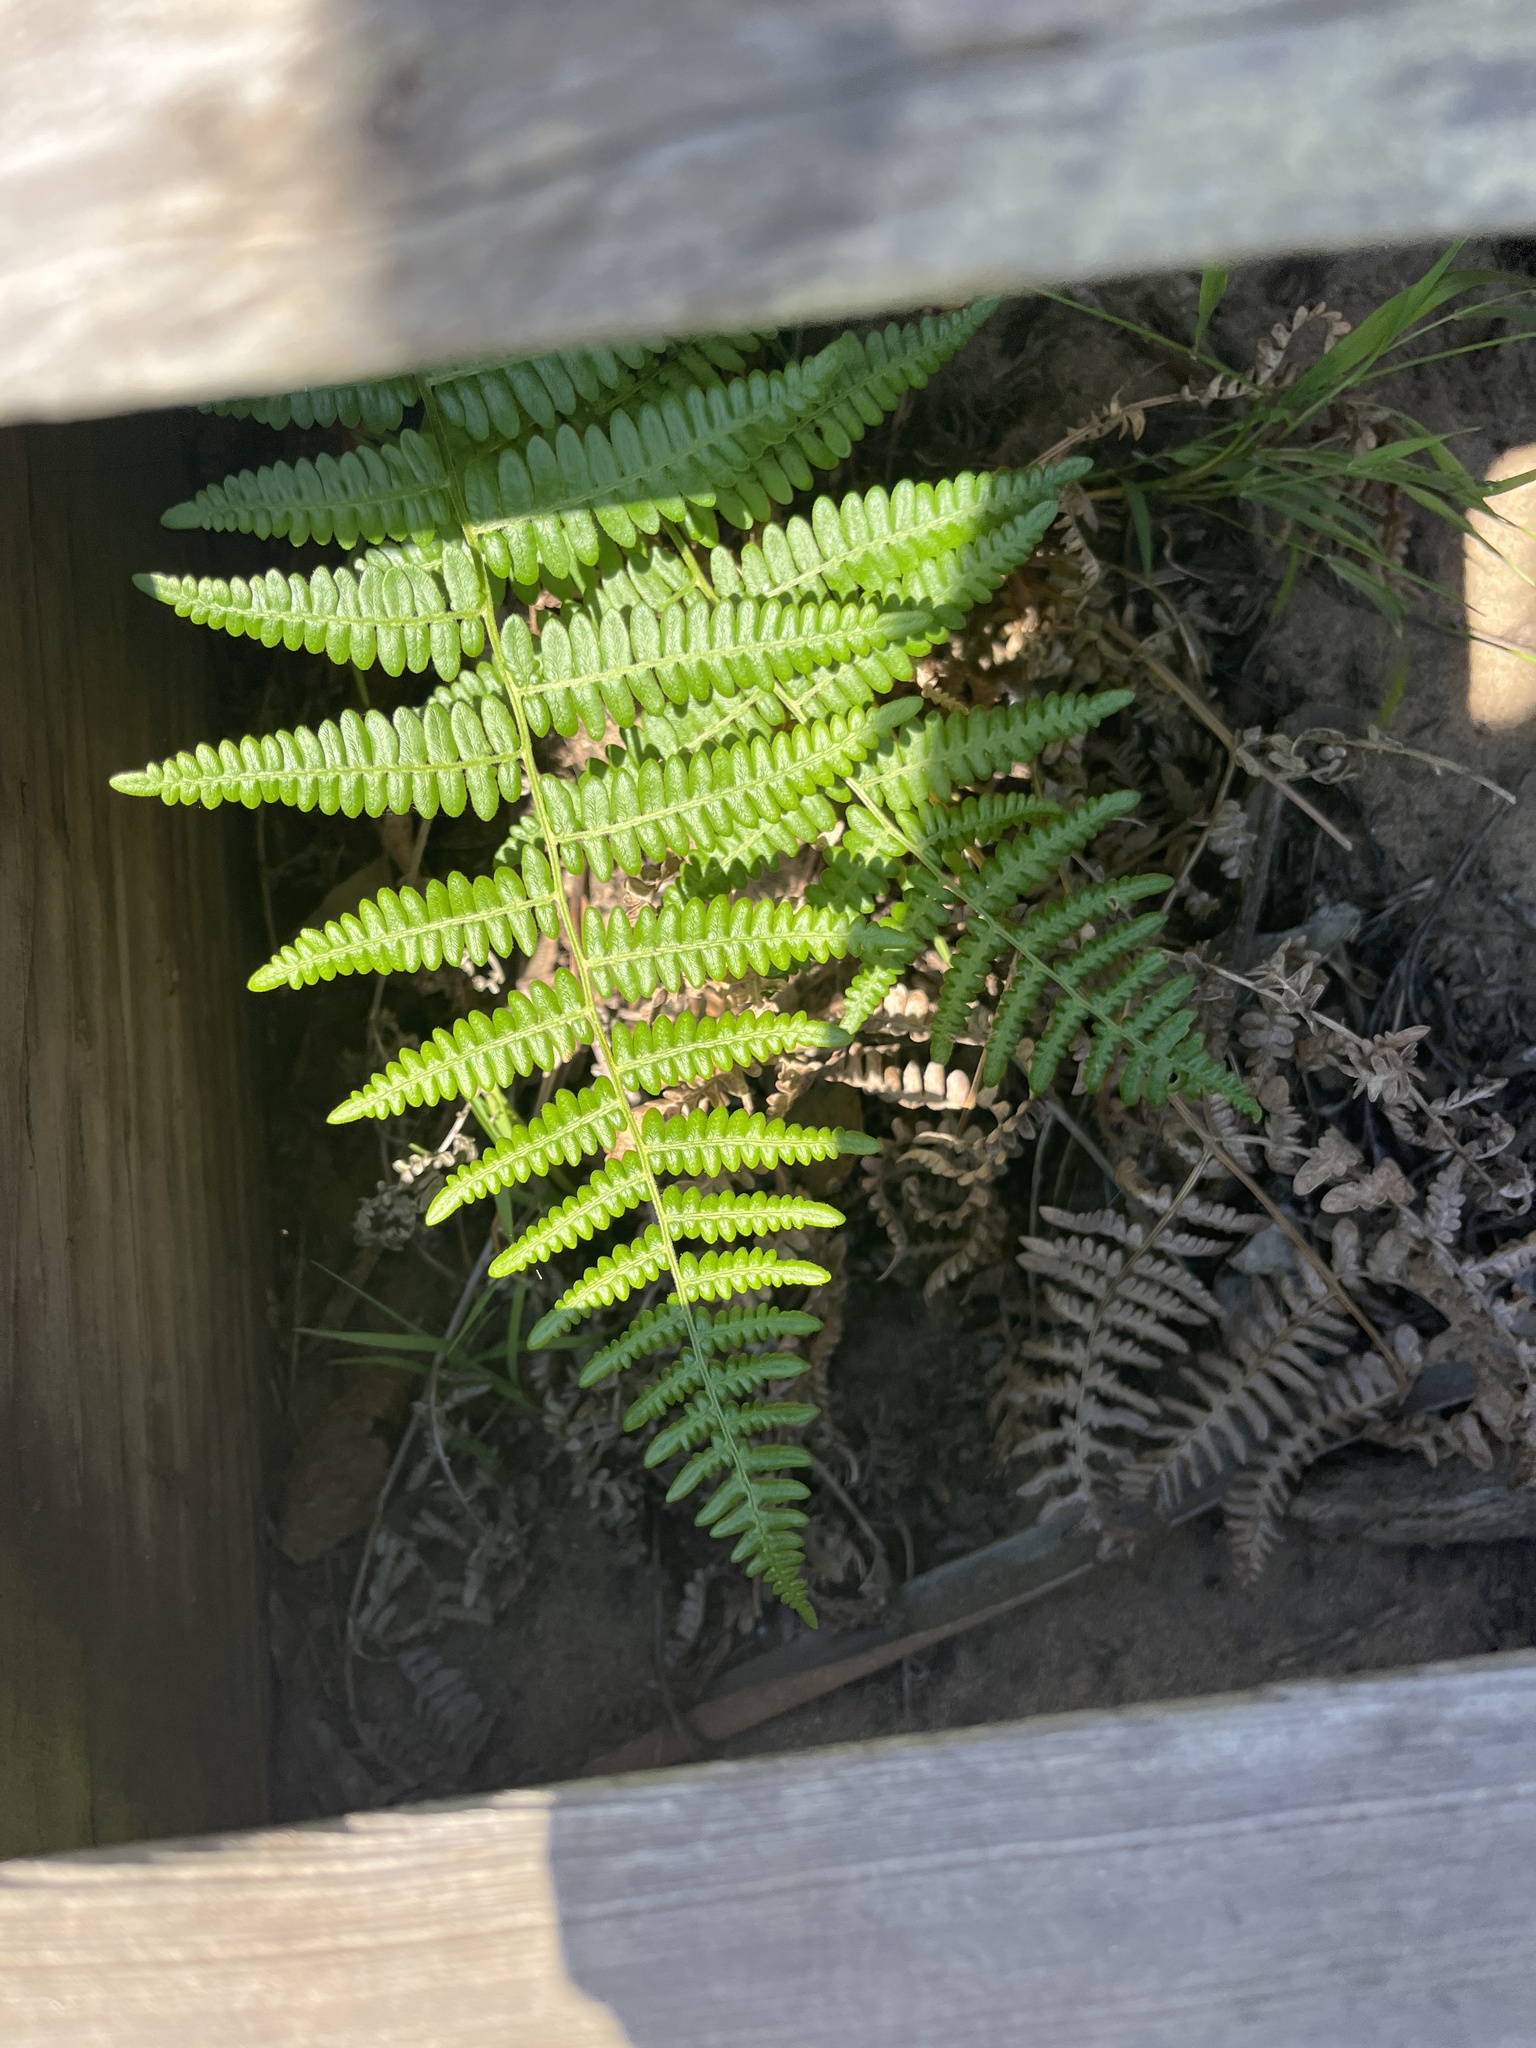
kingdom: Plantae
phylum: Tracheophyta
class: Polypodiopsida
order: Polypodiales
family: Dennstaedtiaceae
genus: Pteridium
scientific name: Pteridium aquilinum
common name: Bracken
